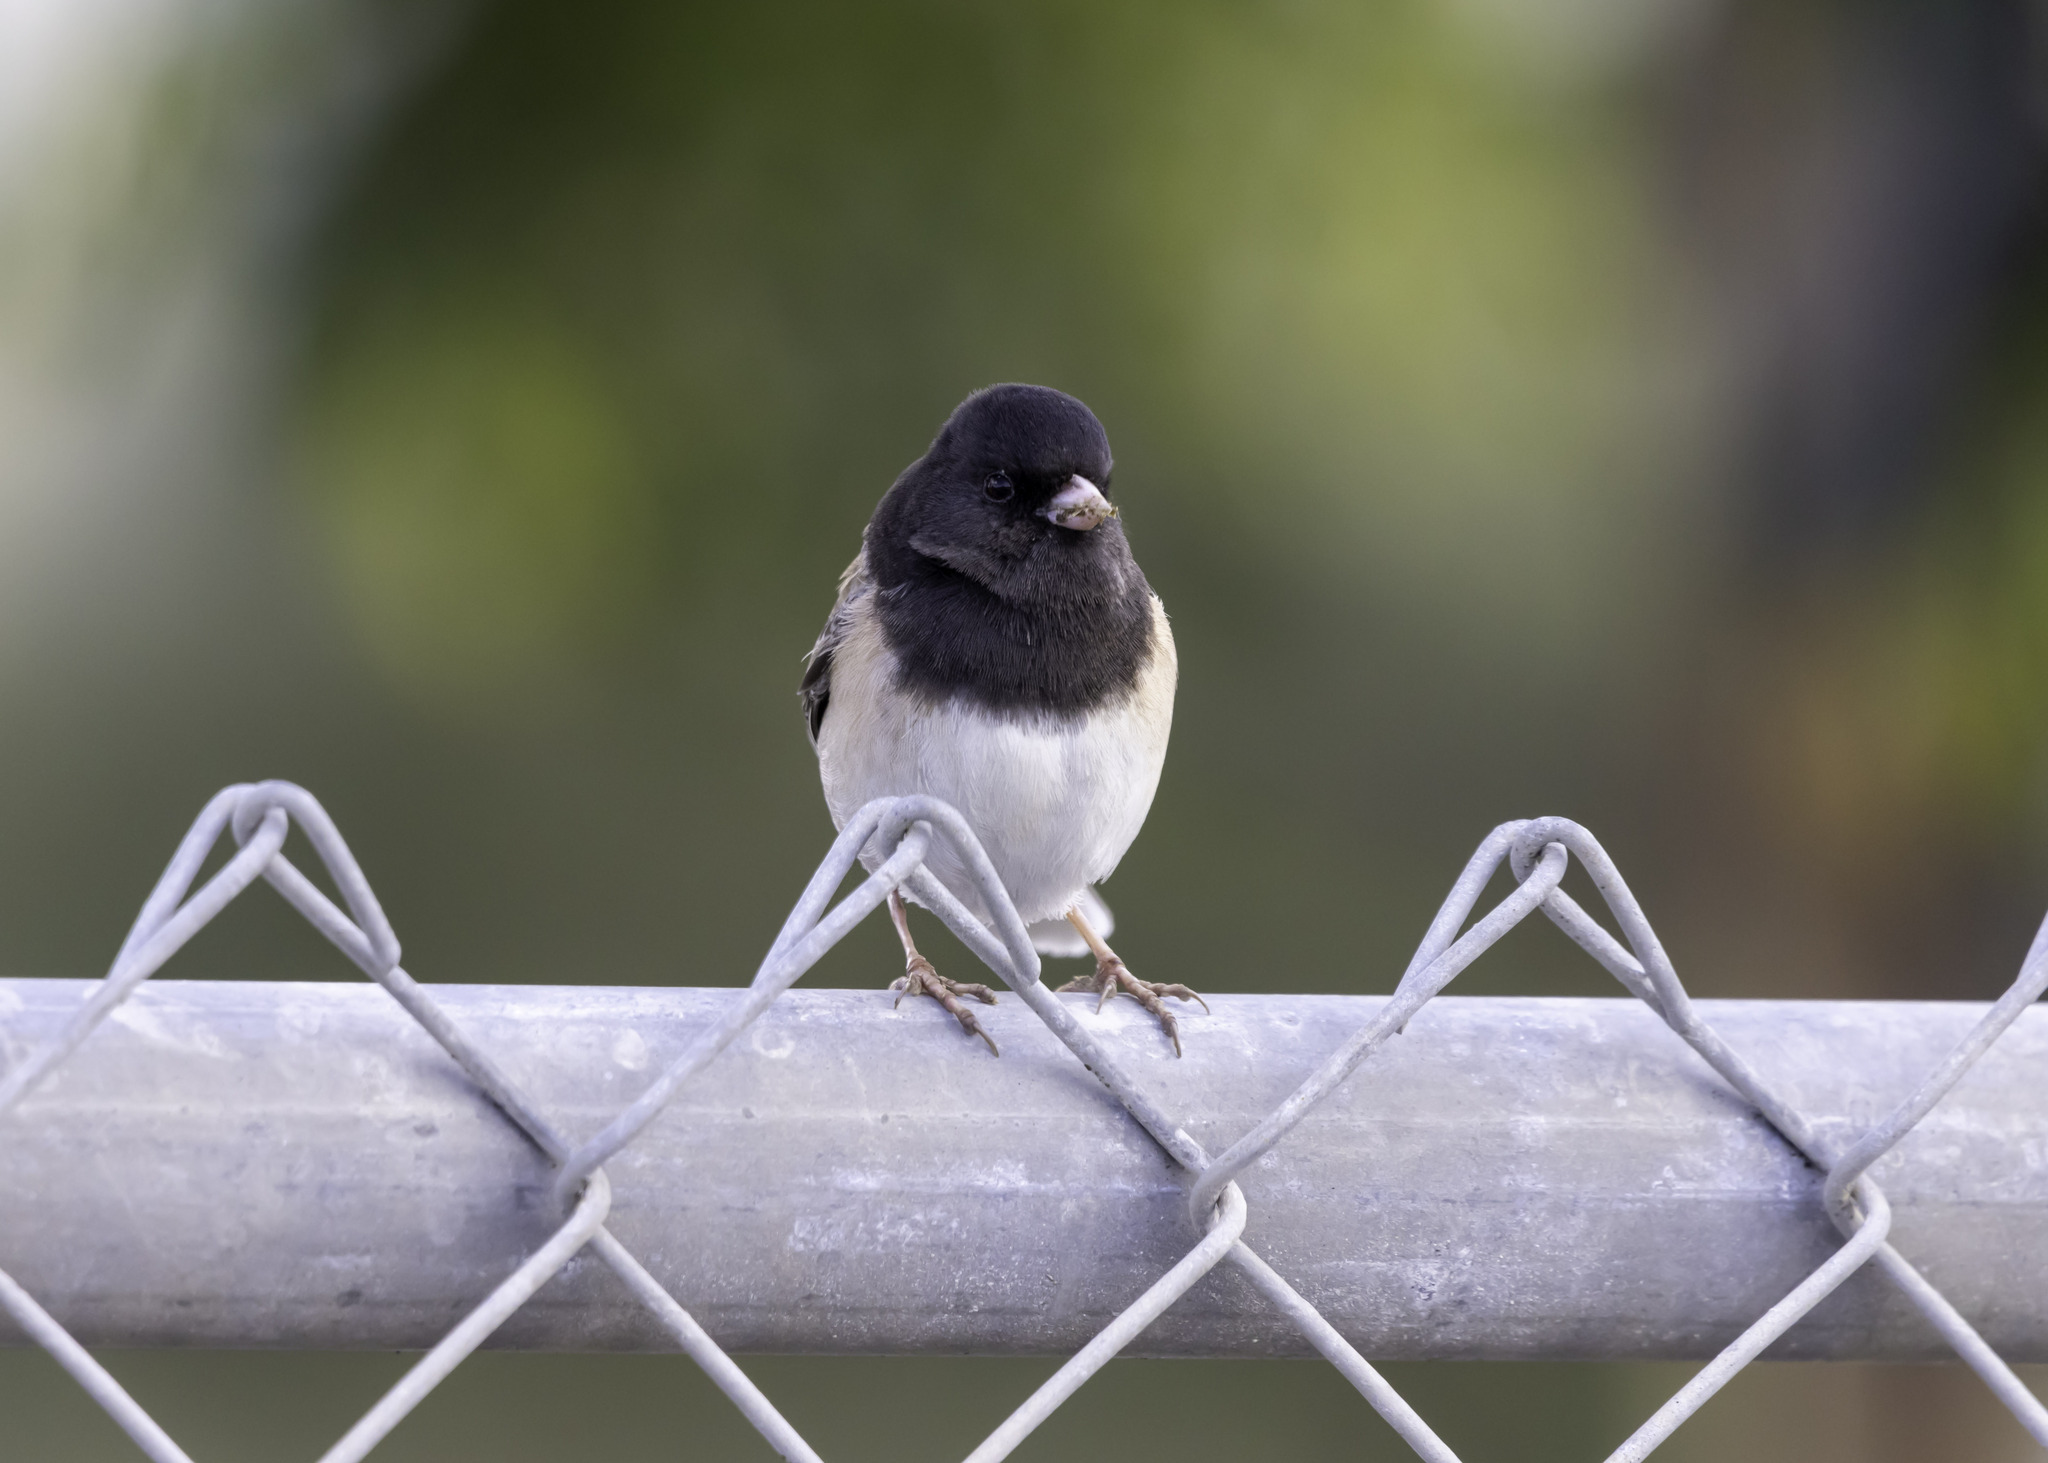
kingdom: Animalia
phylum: Chordata
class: Aves
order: Passeriformes
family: Passerellidae
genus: Junco
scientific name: Junco hyemalis
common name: Dark-eyed junco
